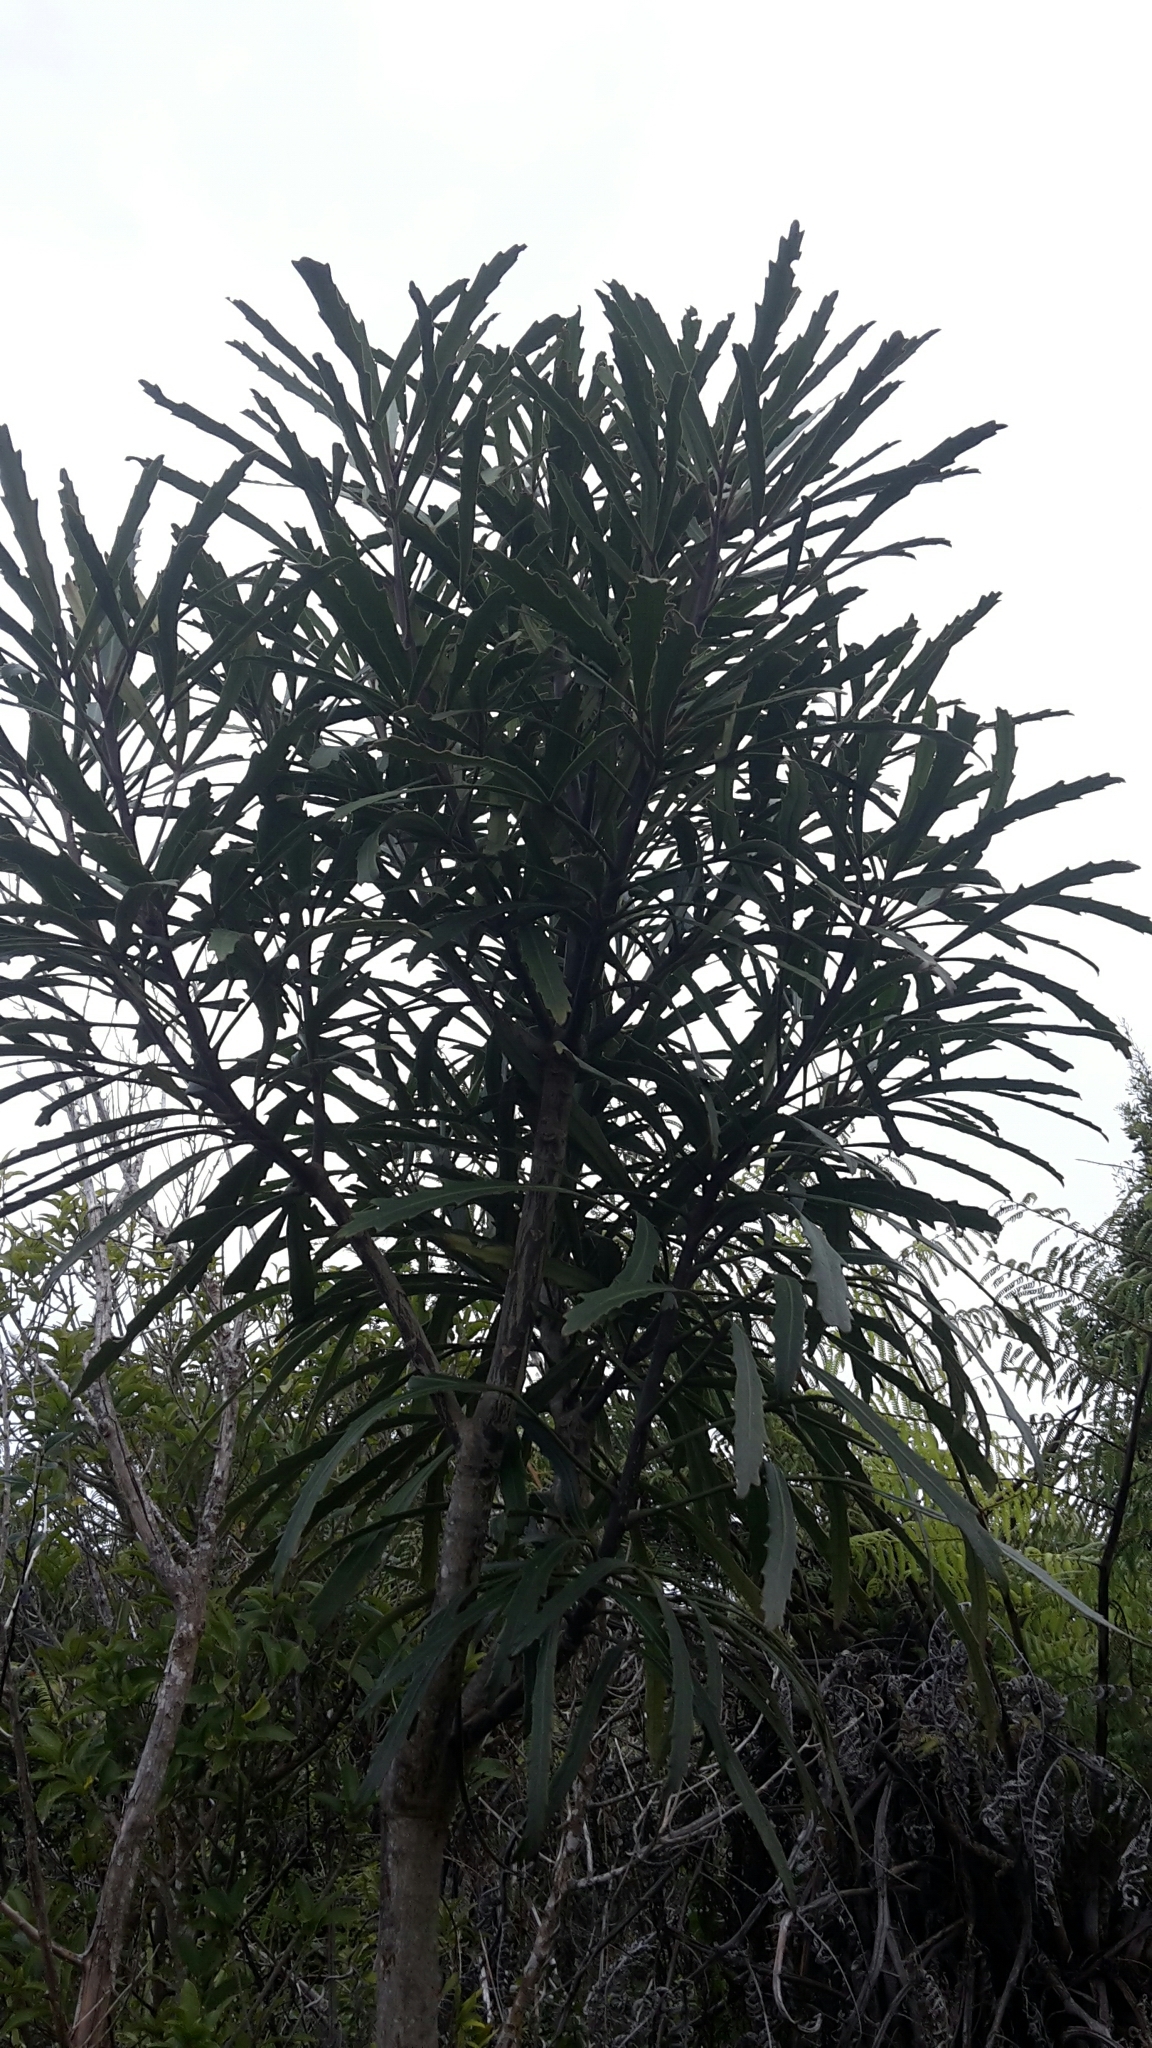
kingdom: Plantae
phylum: Tracheophyta
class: Magnoliopsida
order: Apiales
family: Araliaceae
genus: Pseudopanax
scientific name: Pseudopanax
